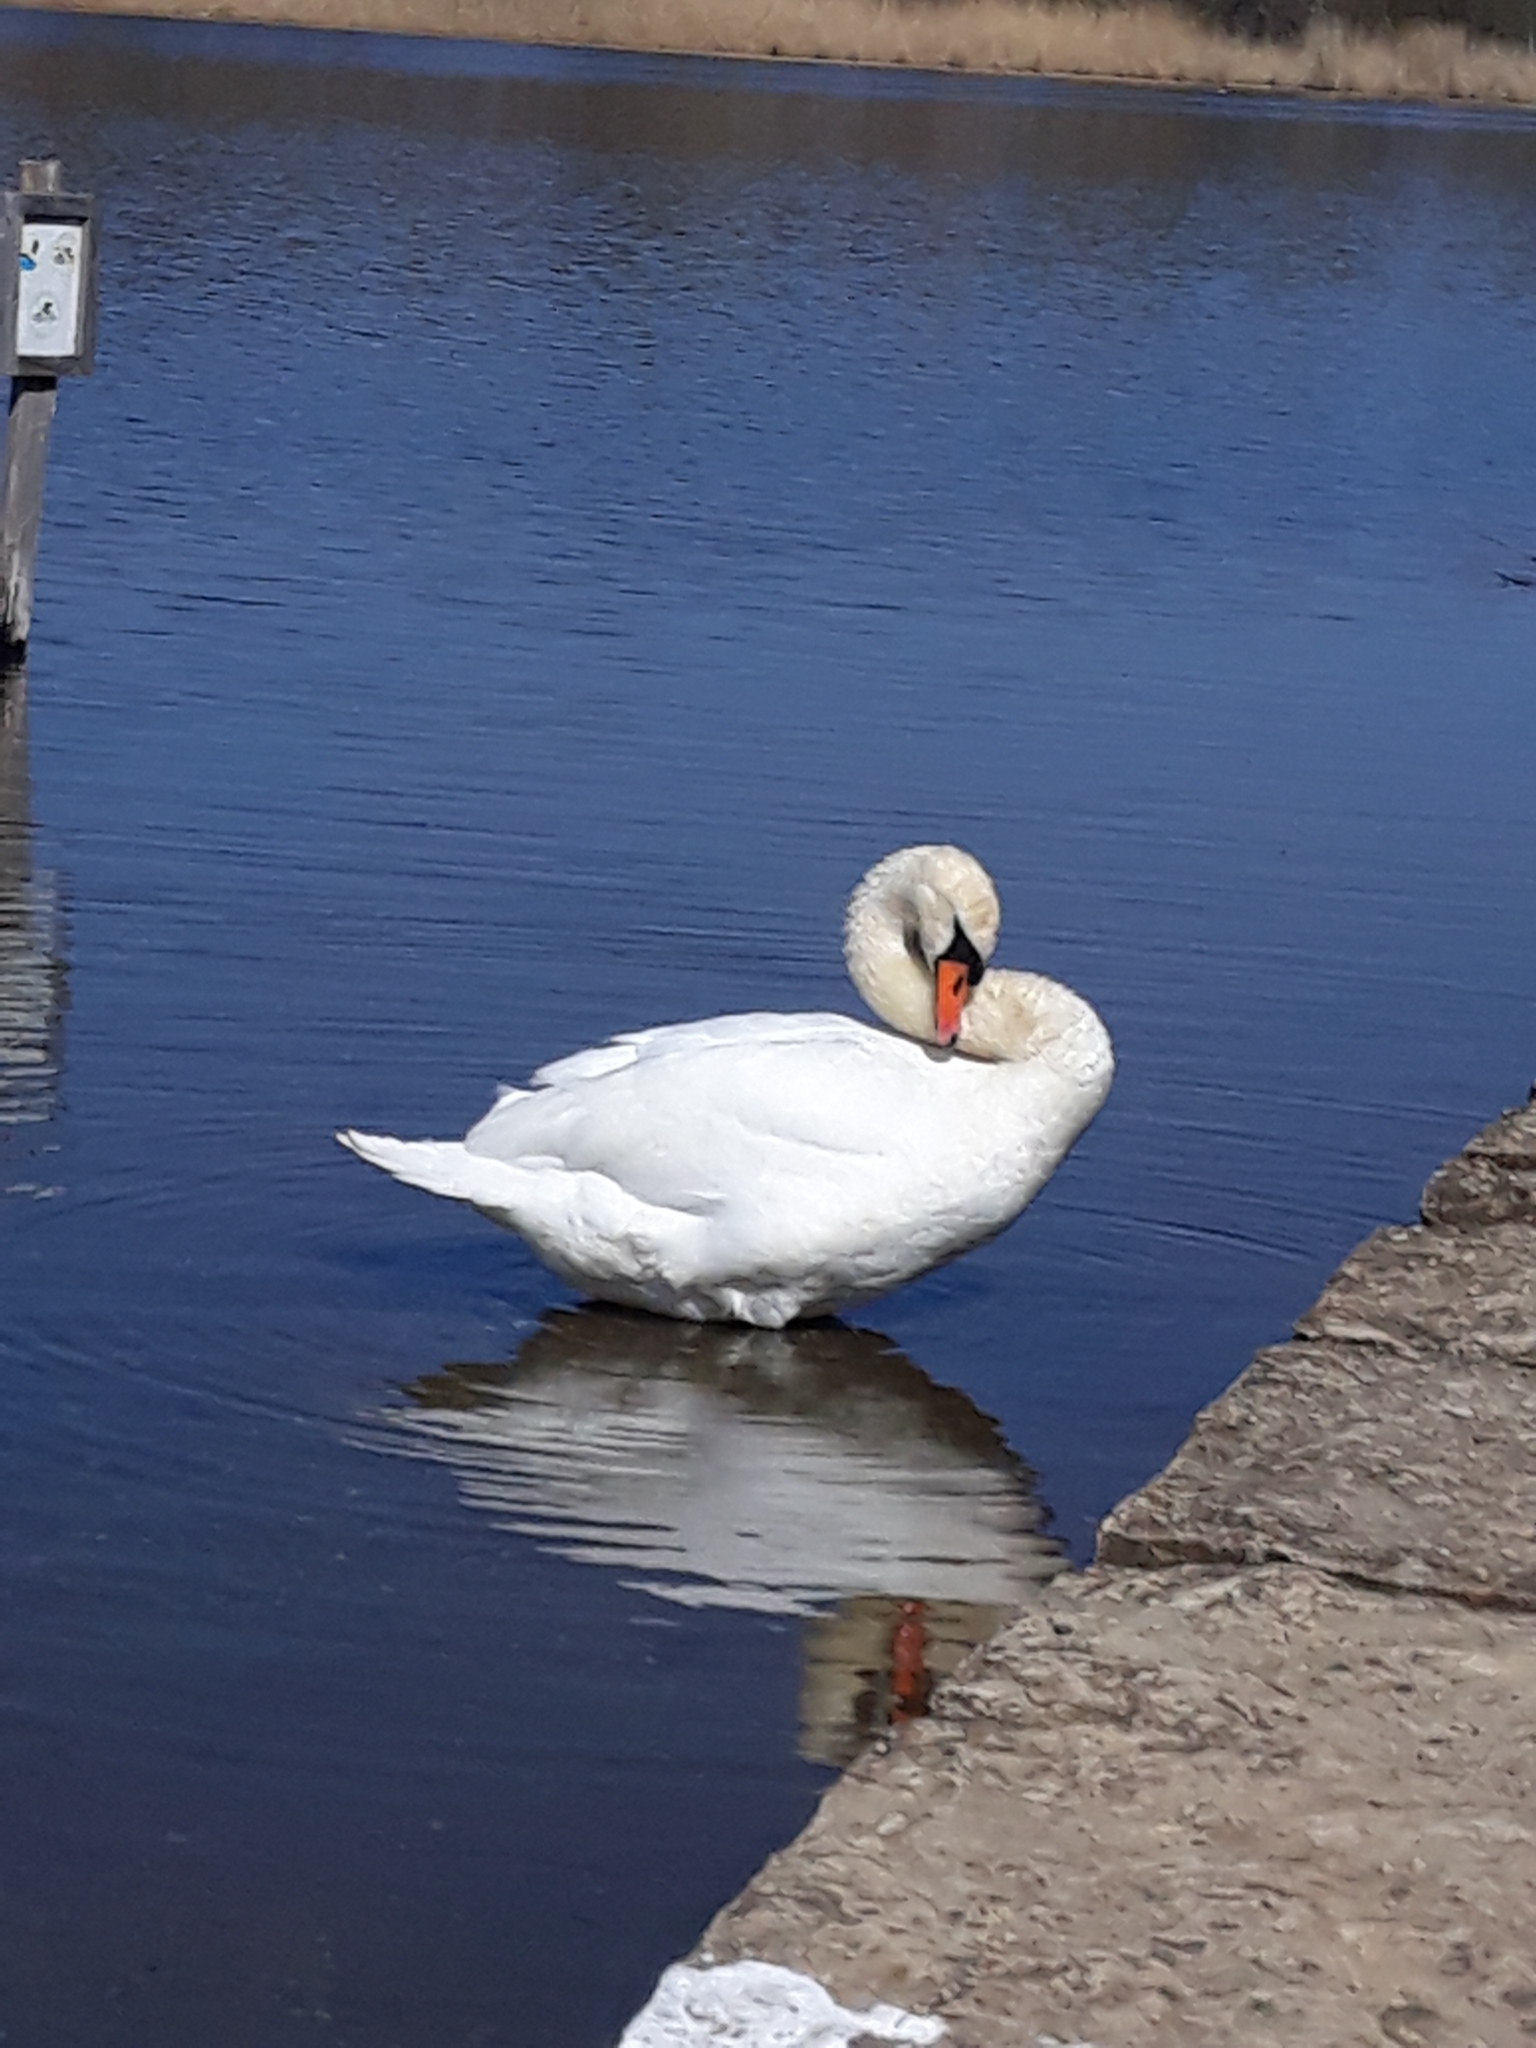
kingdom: Animalia
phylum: Chordata
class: Aves
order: Anseriformes
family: Anatidae
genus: Cygnus
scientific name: Cygnus olor
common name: Mute swan
